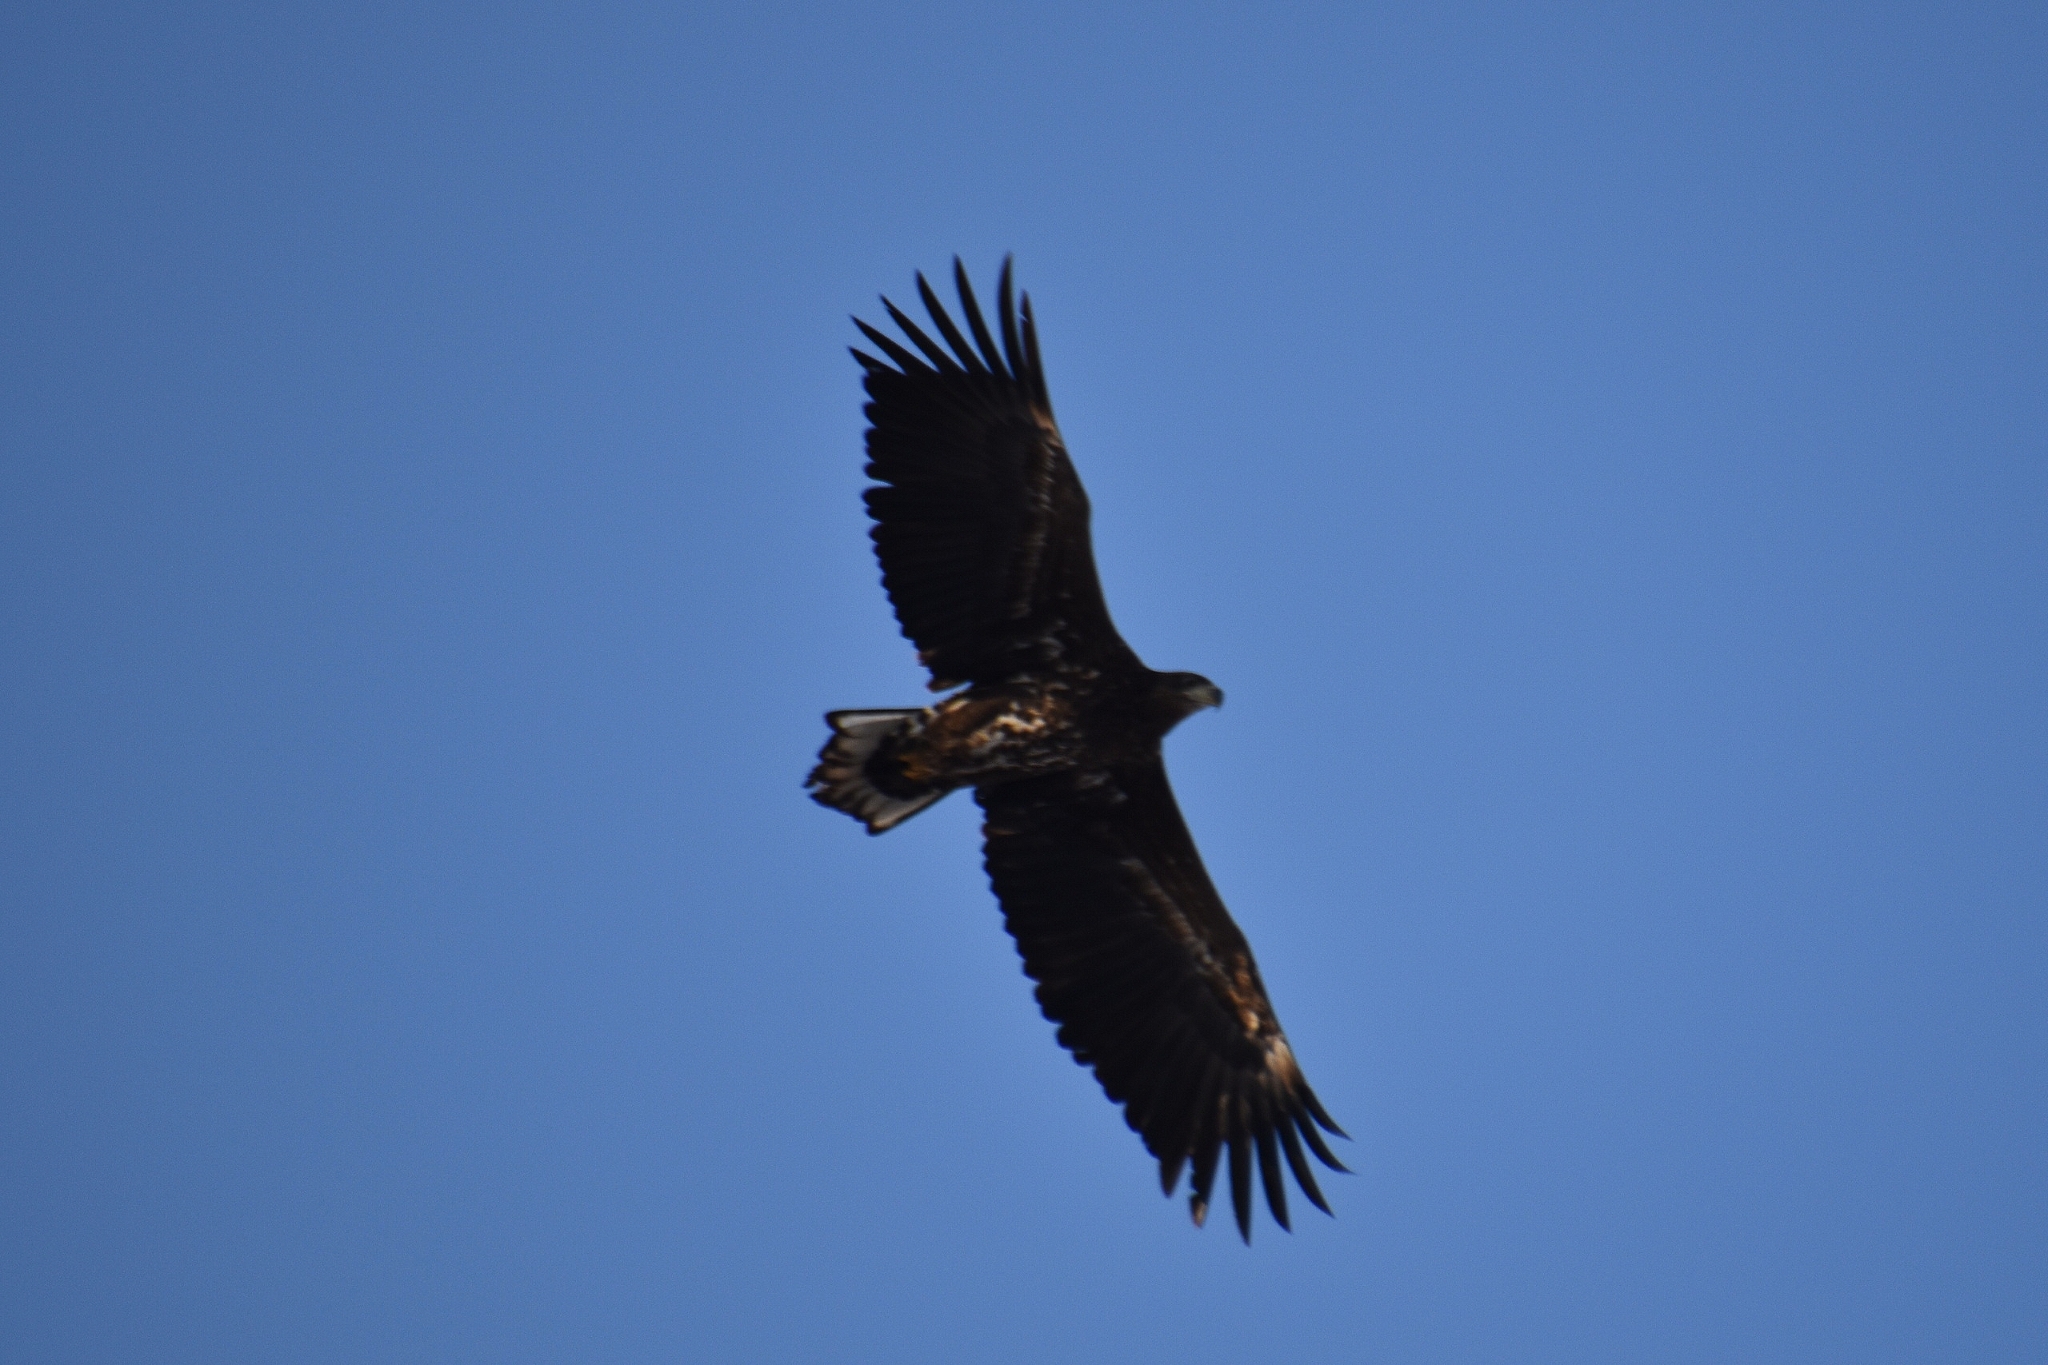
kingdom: Animalia
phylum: Chordata
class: Aves
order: Accipitriformes
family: Accipitridae
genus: Haliaeetus
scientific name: Haliaeetus albicilla
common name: White-tailed eagle
